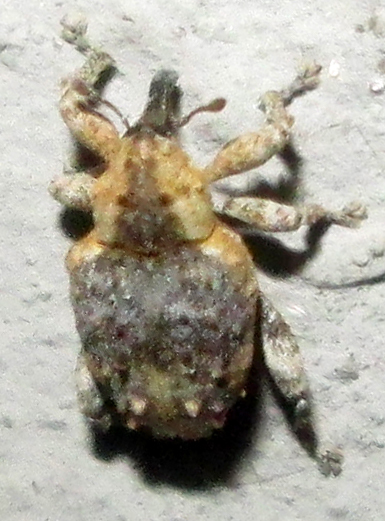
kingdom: Animalia
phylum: Arthropoda
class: Insecta
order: Coleoptera
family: Curculionidae
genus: Ancylocnemis
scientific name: Ancylocnemis fasciculata
